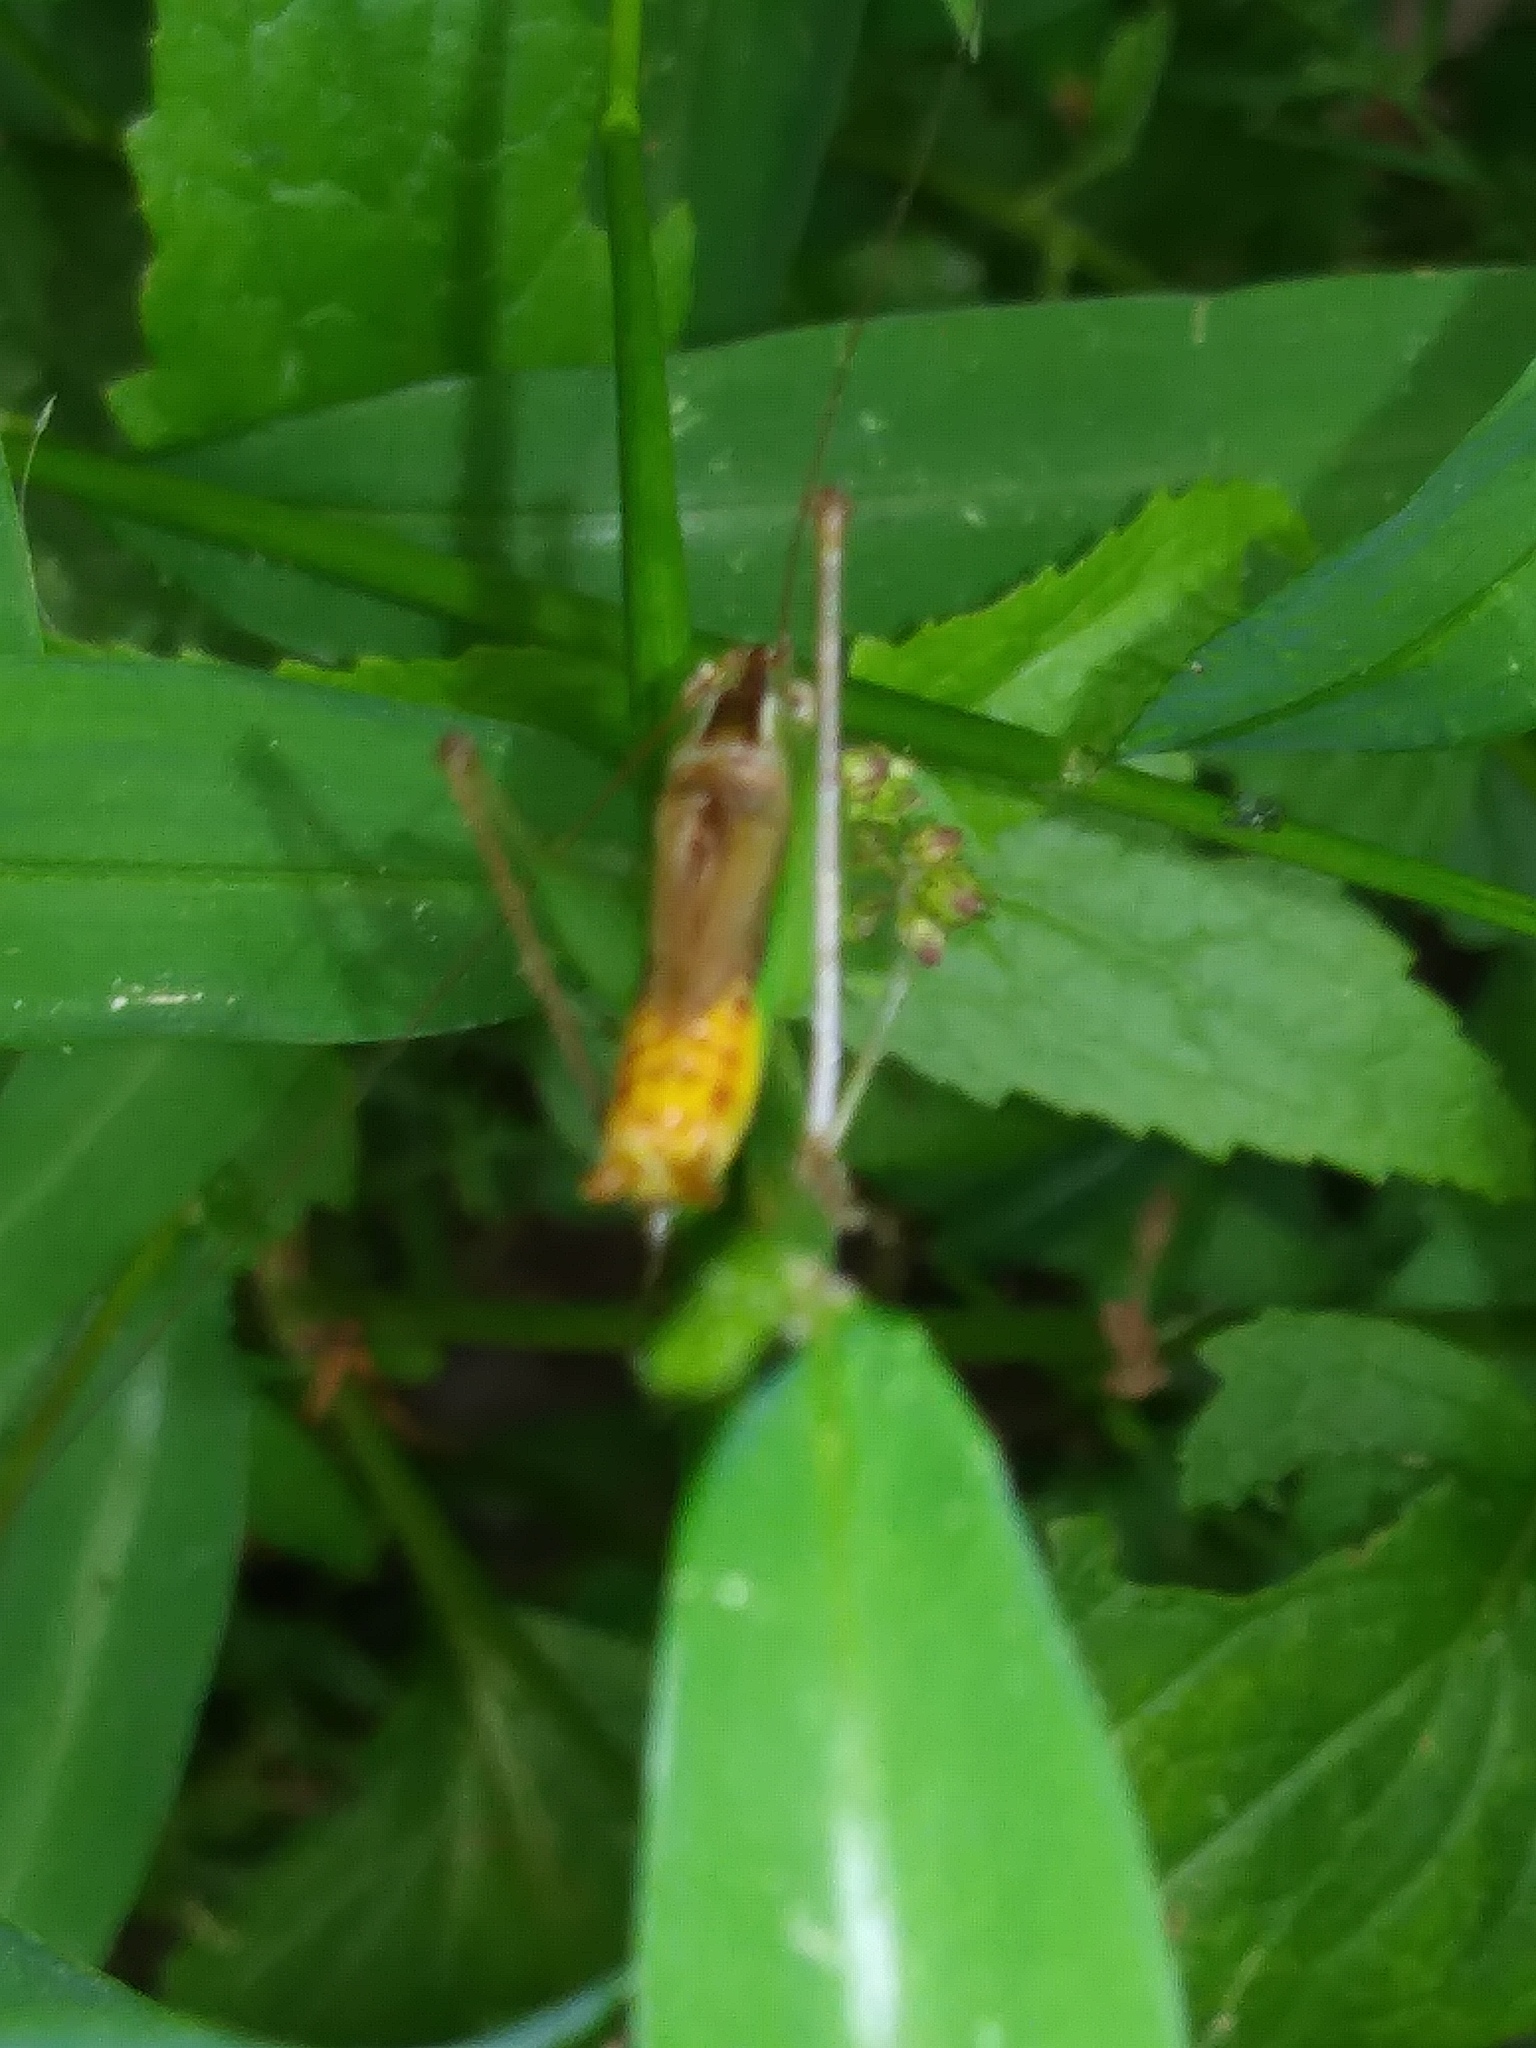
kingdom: Animalia
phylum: Arthropoda
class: Insecta
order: Orthoptera
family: Tettigoniidae
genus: Conocephalus
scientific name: Conocephalus brevipennis
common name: Short-winged meadow katydid
